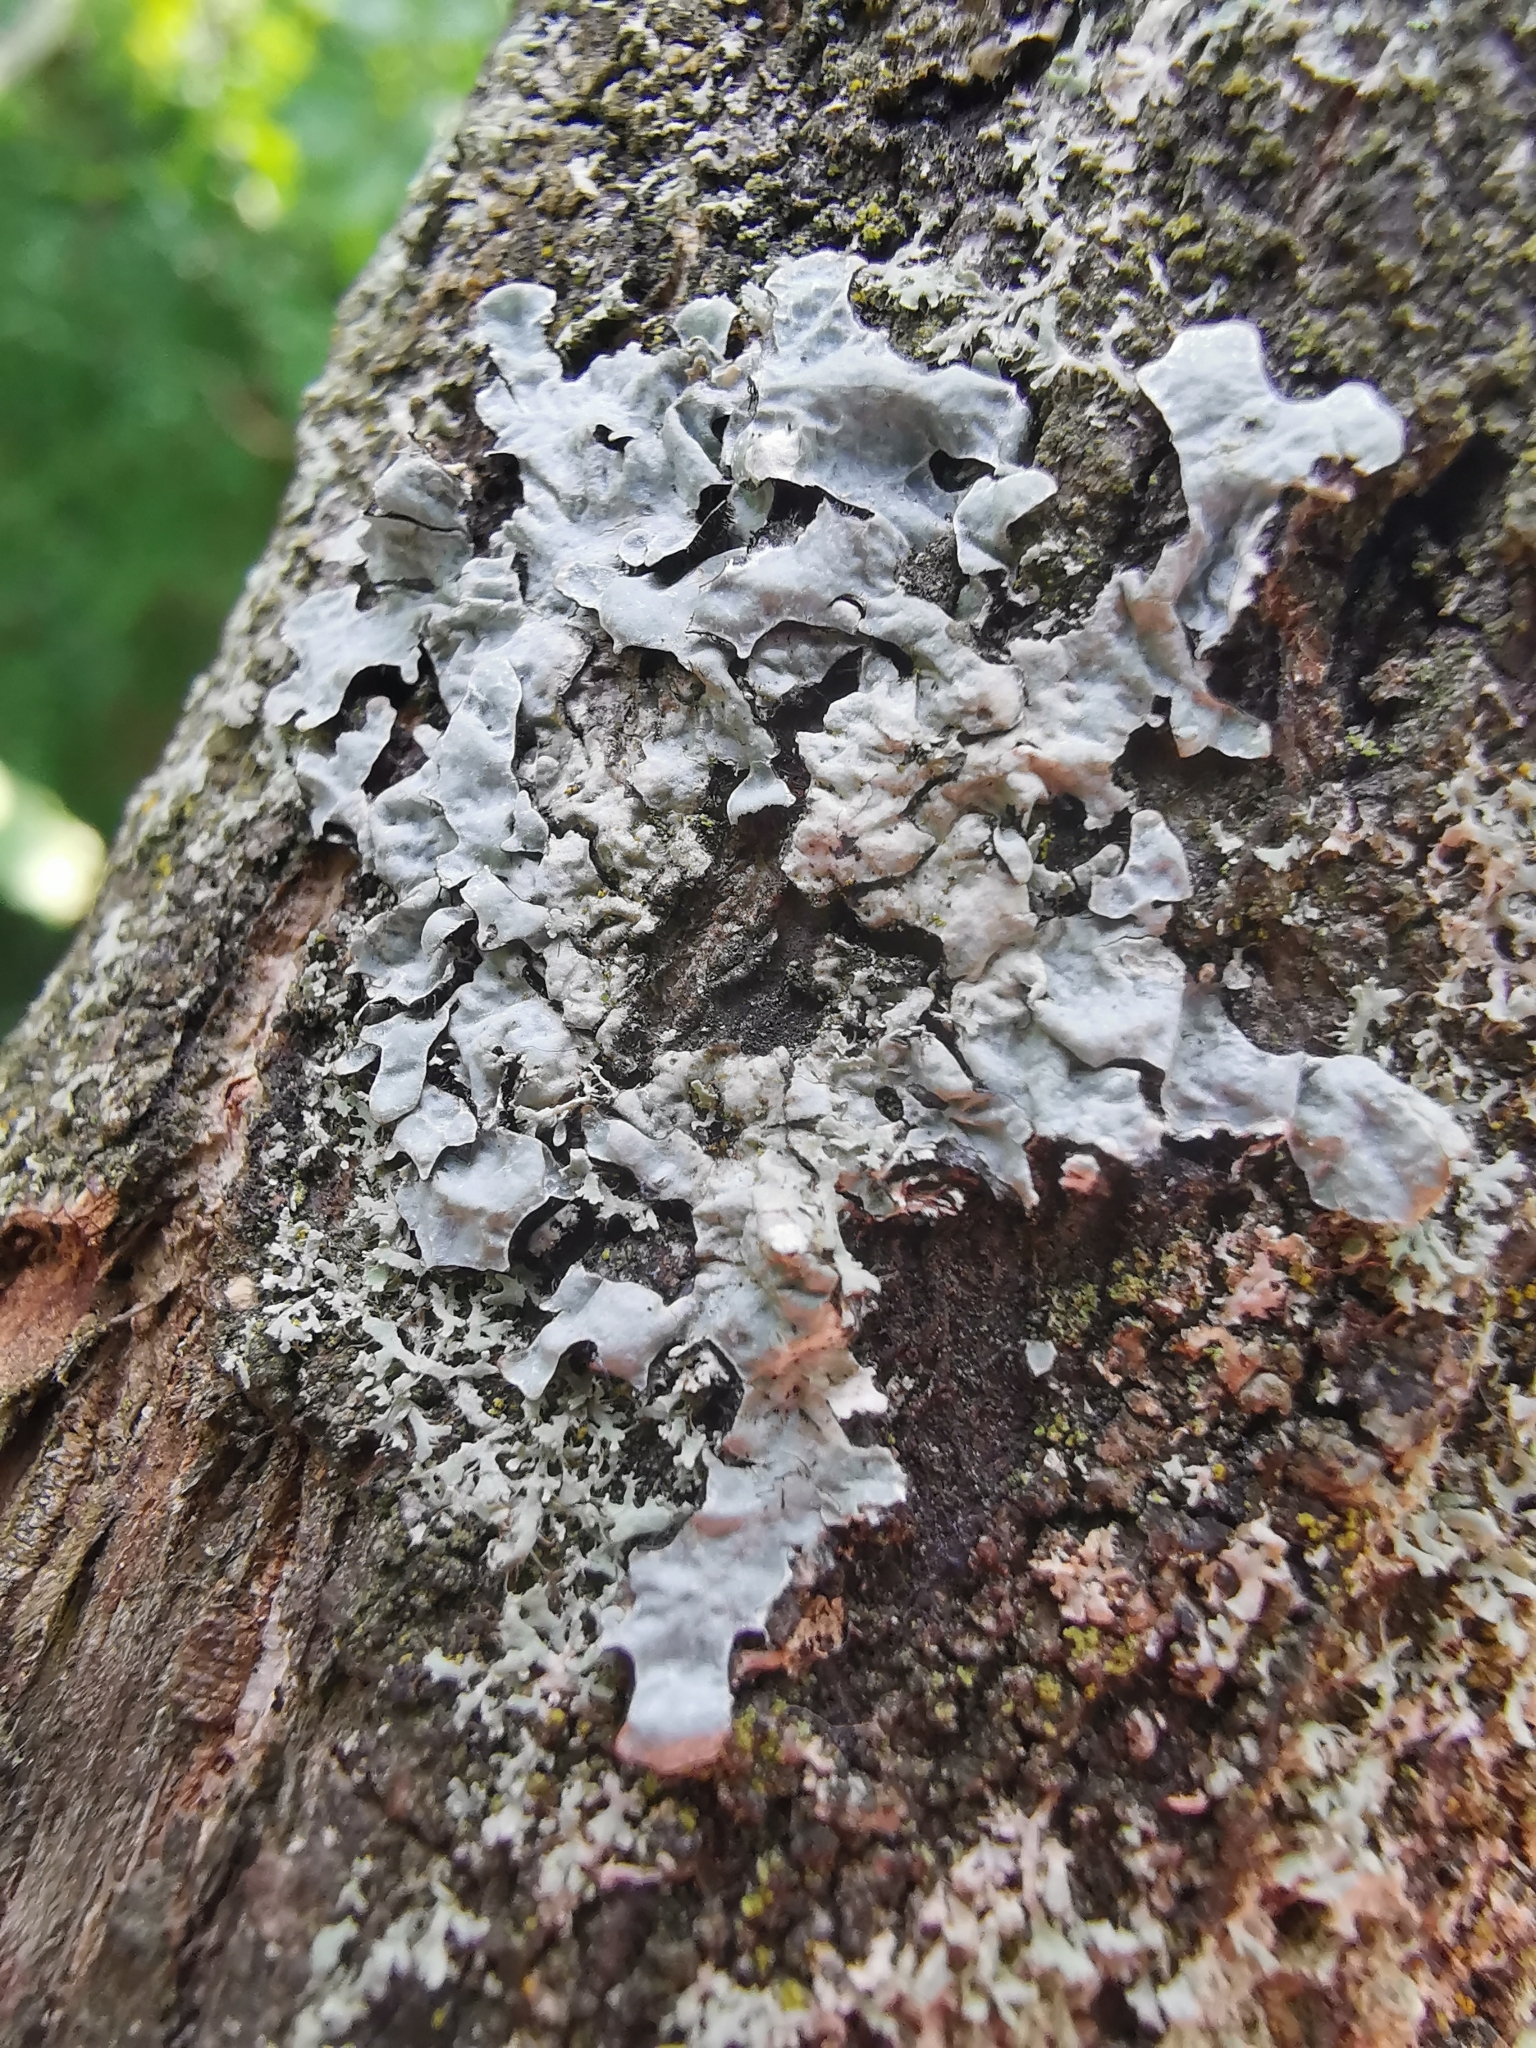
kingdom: Fungi
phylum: Ascomycota
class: Lecanoromycetes
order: Lecanorales
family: Parmeliaceae
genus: Parmelia
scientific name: Parmelia sulcata
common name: Netted shield lichen
